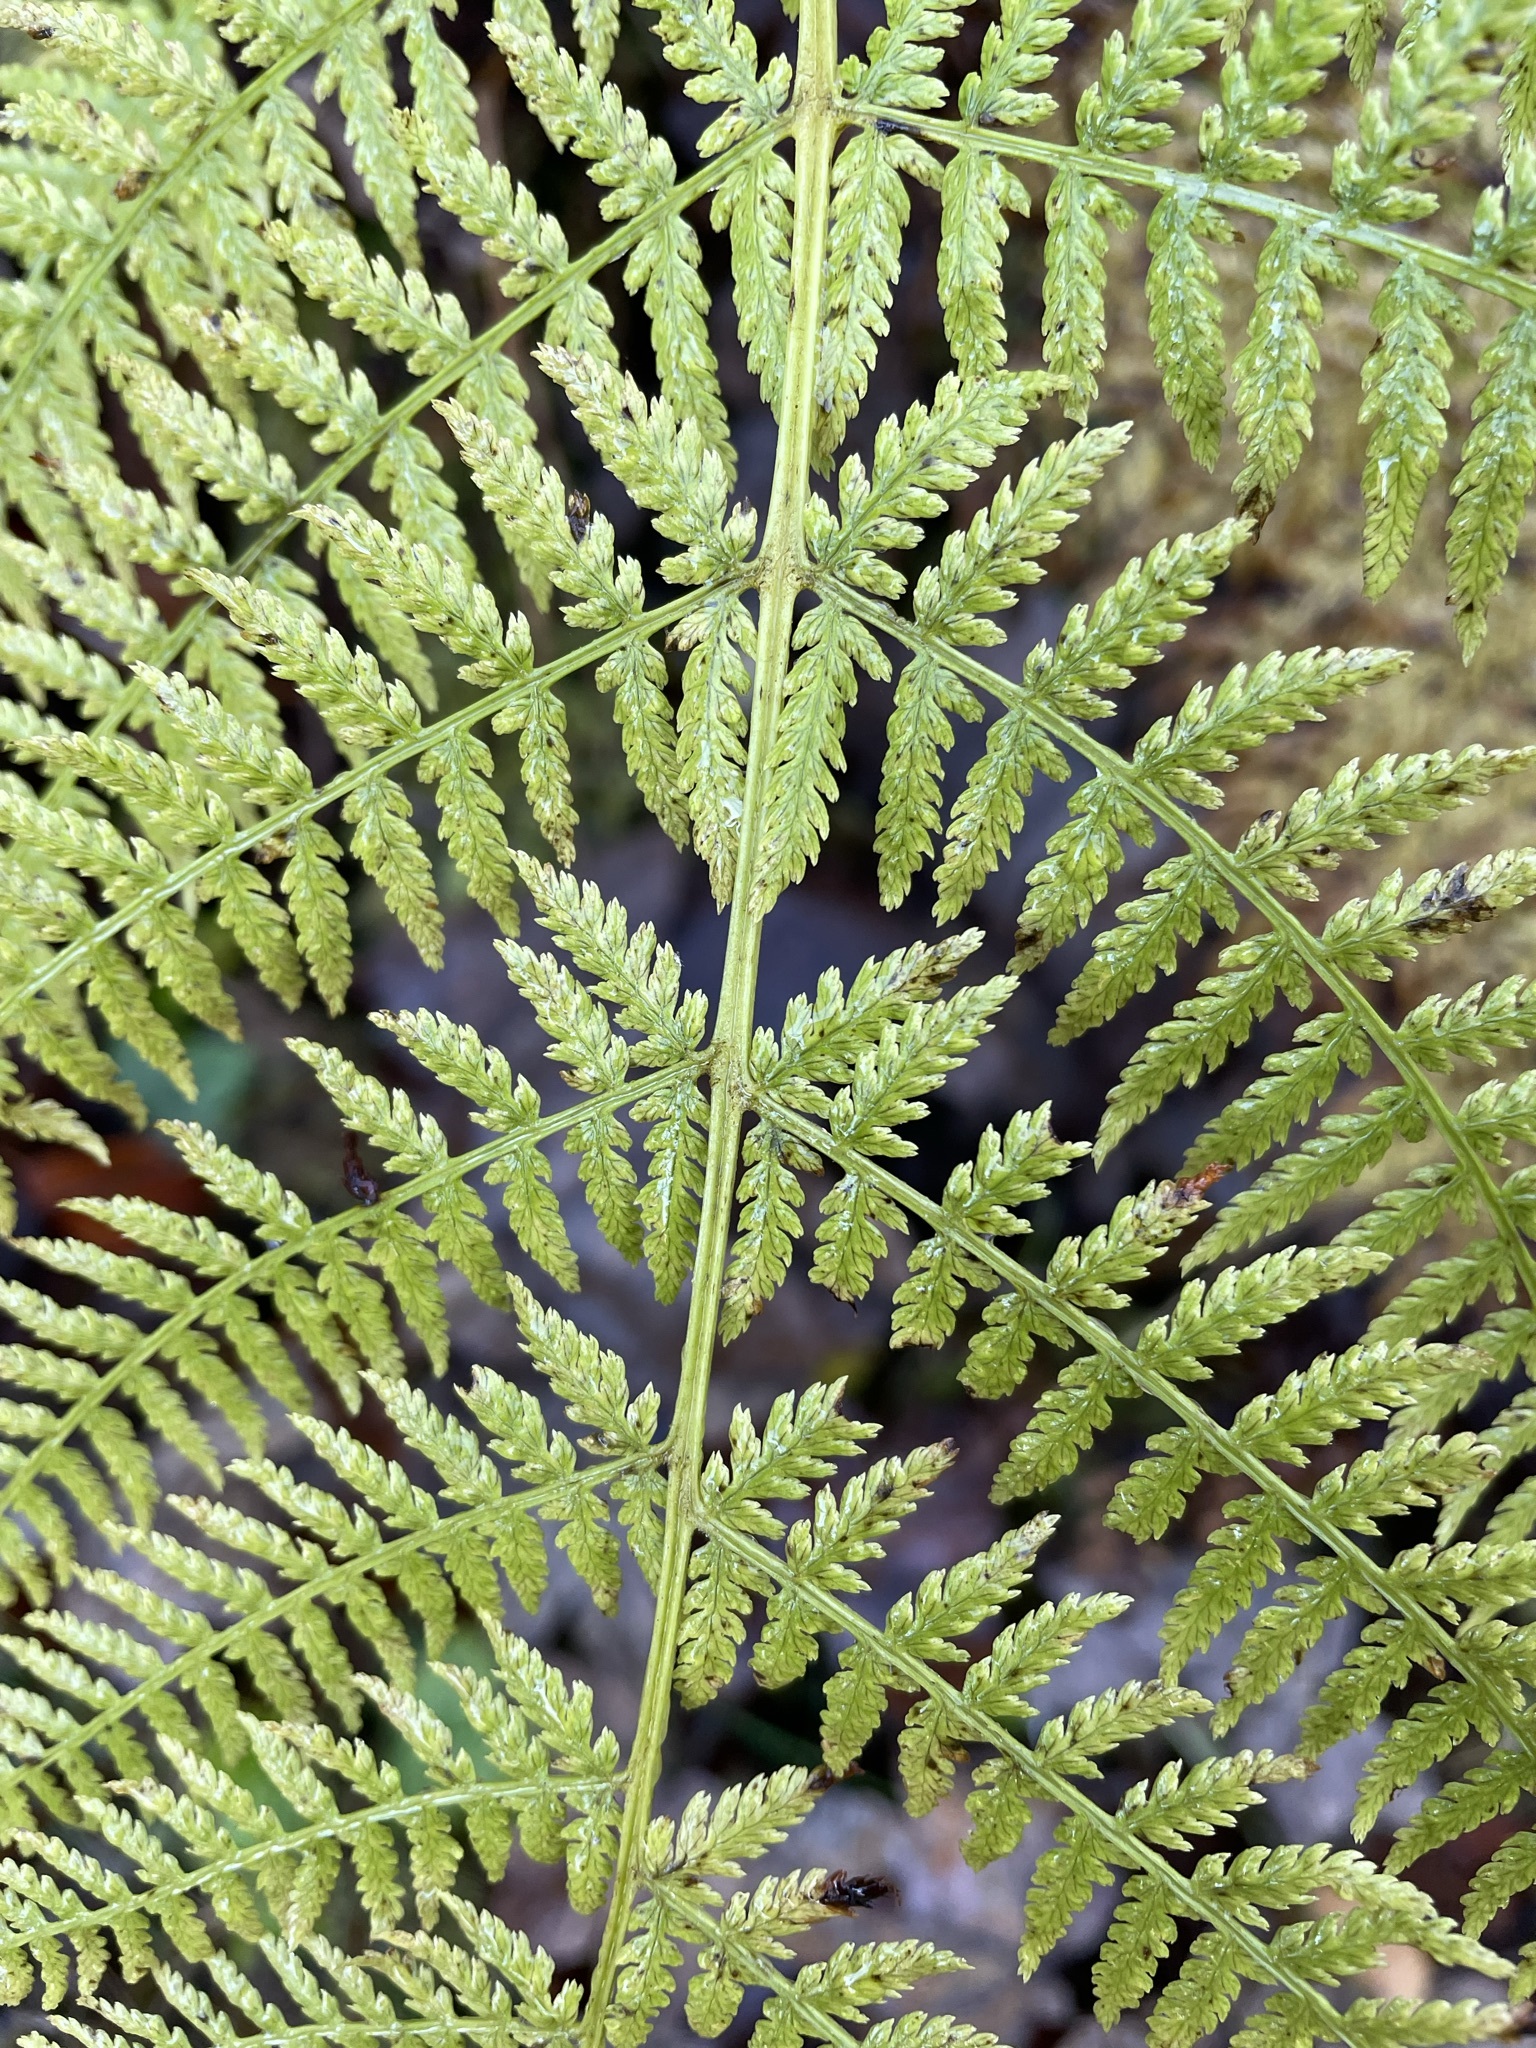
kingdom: Plantae
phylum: Tracheophyta
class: Polypodiopsida
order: Polypodiales
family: Athyriaceae
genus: Athyrium
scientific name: Athyrium filix-femina
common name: Lady fern
